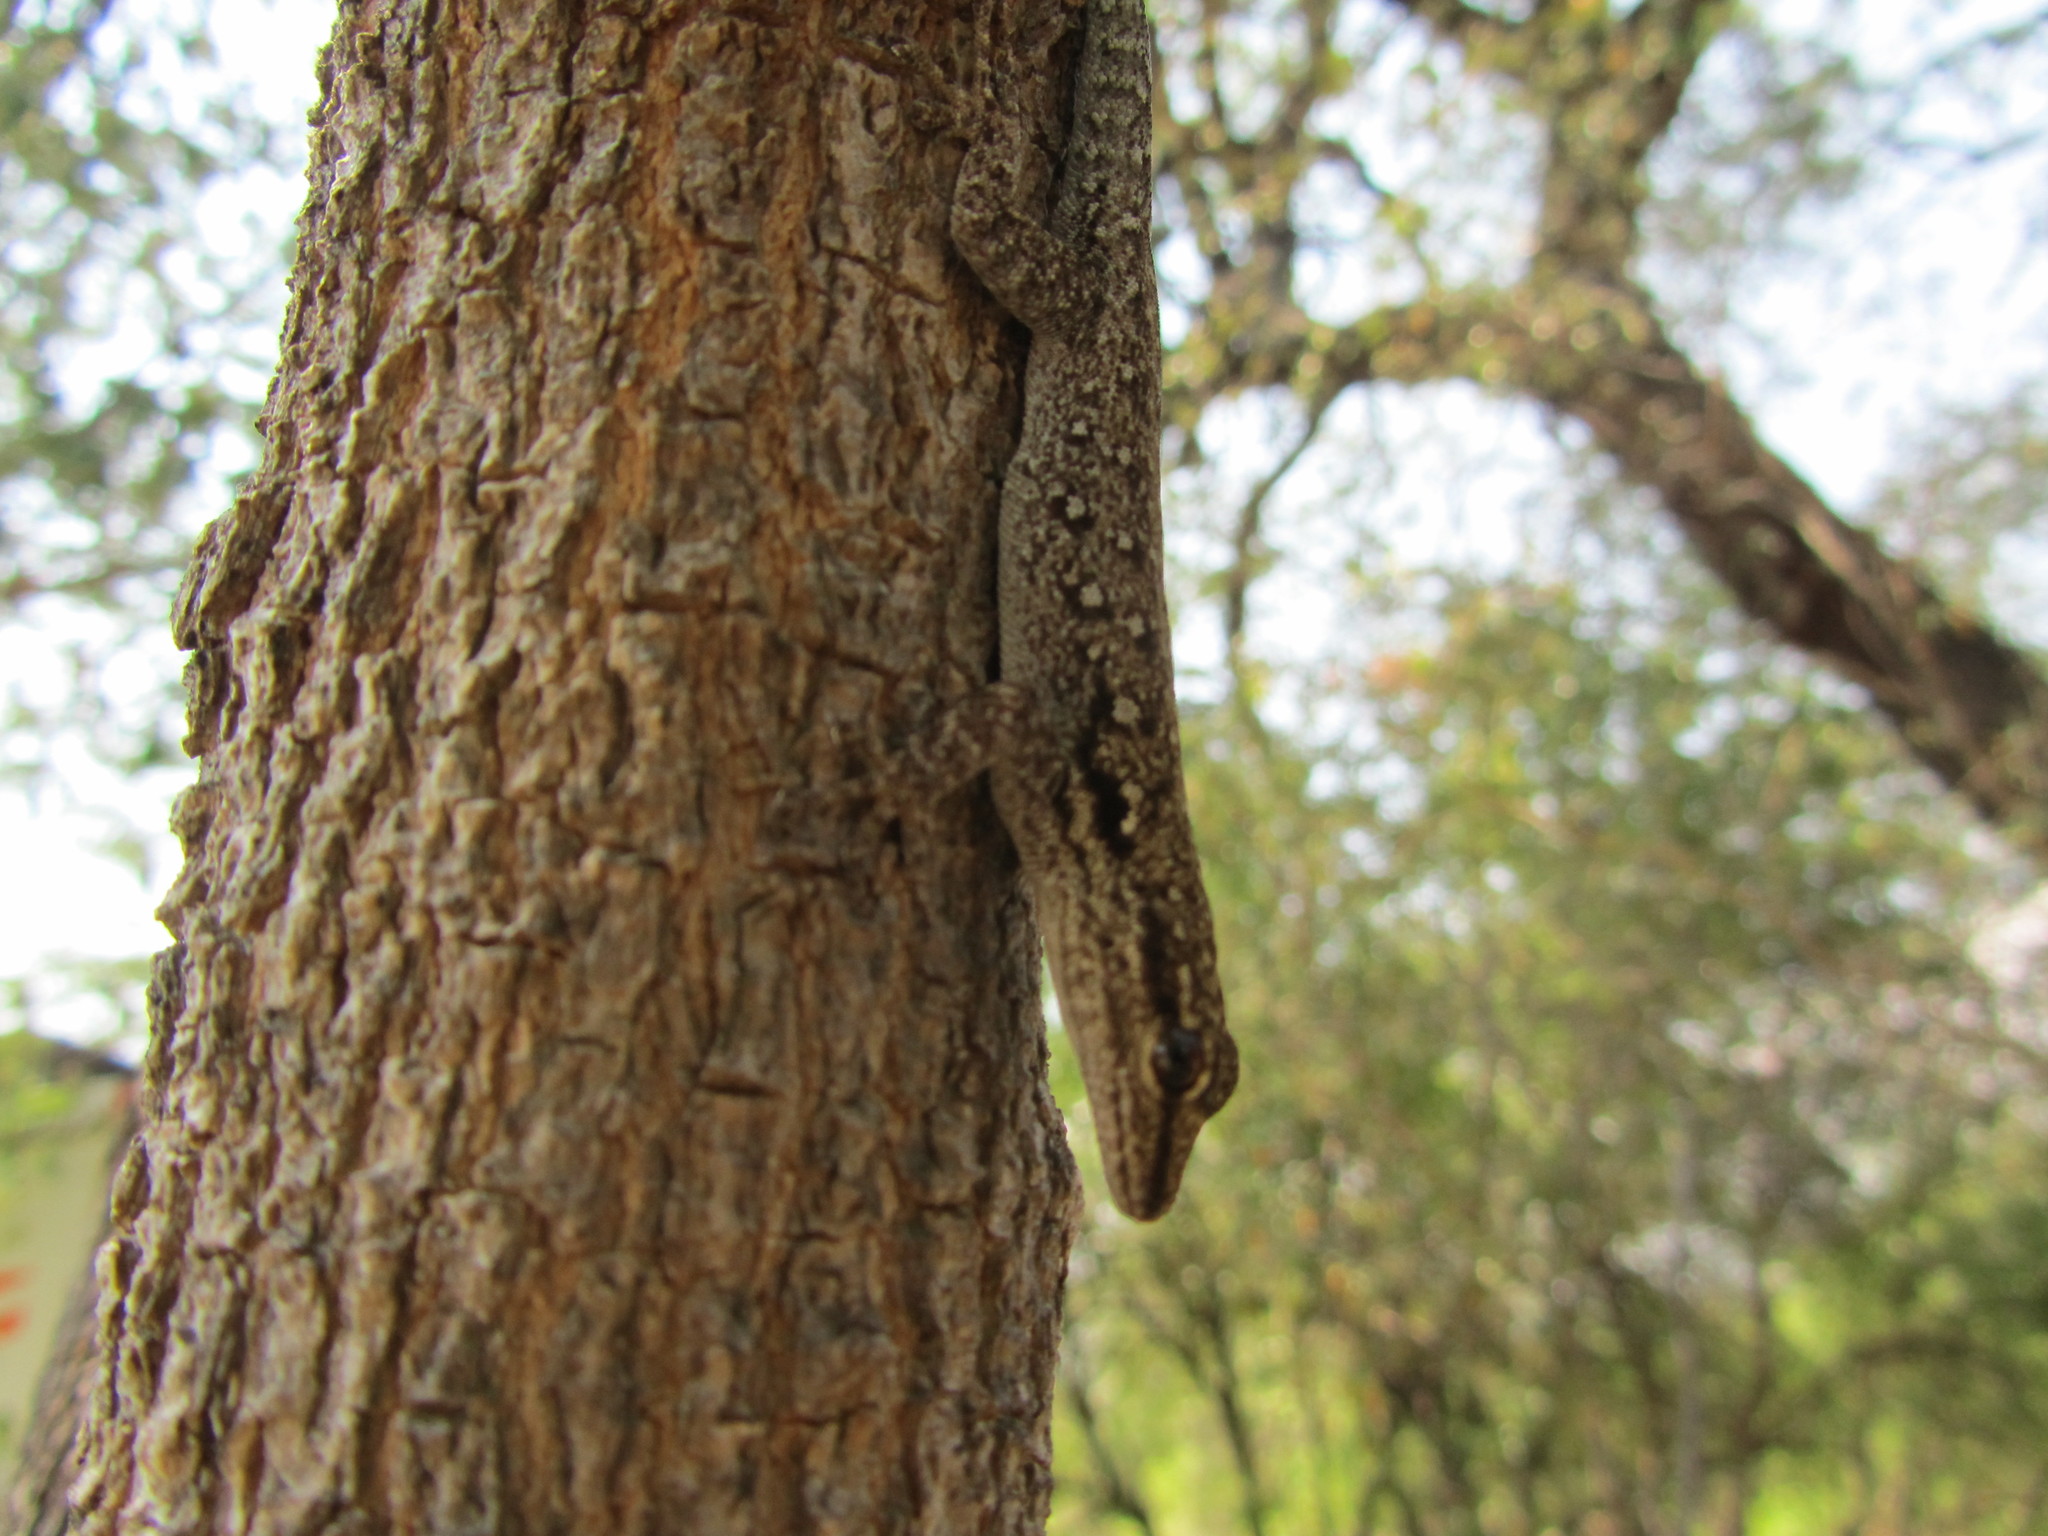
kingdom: Animalia
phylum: Chordata
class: Squamata
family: Gekkonidae
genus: Lygodactylus
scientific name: Lygodactylus chobiensis
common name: Okavango dwarf gecko
